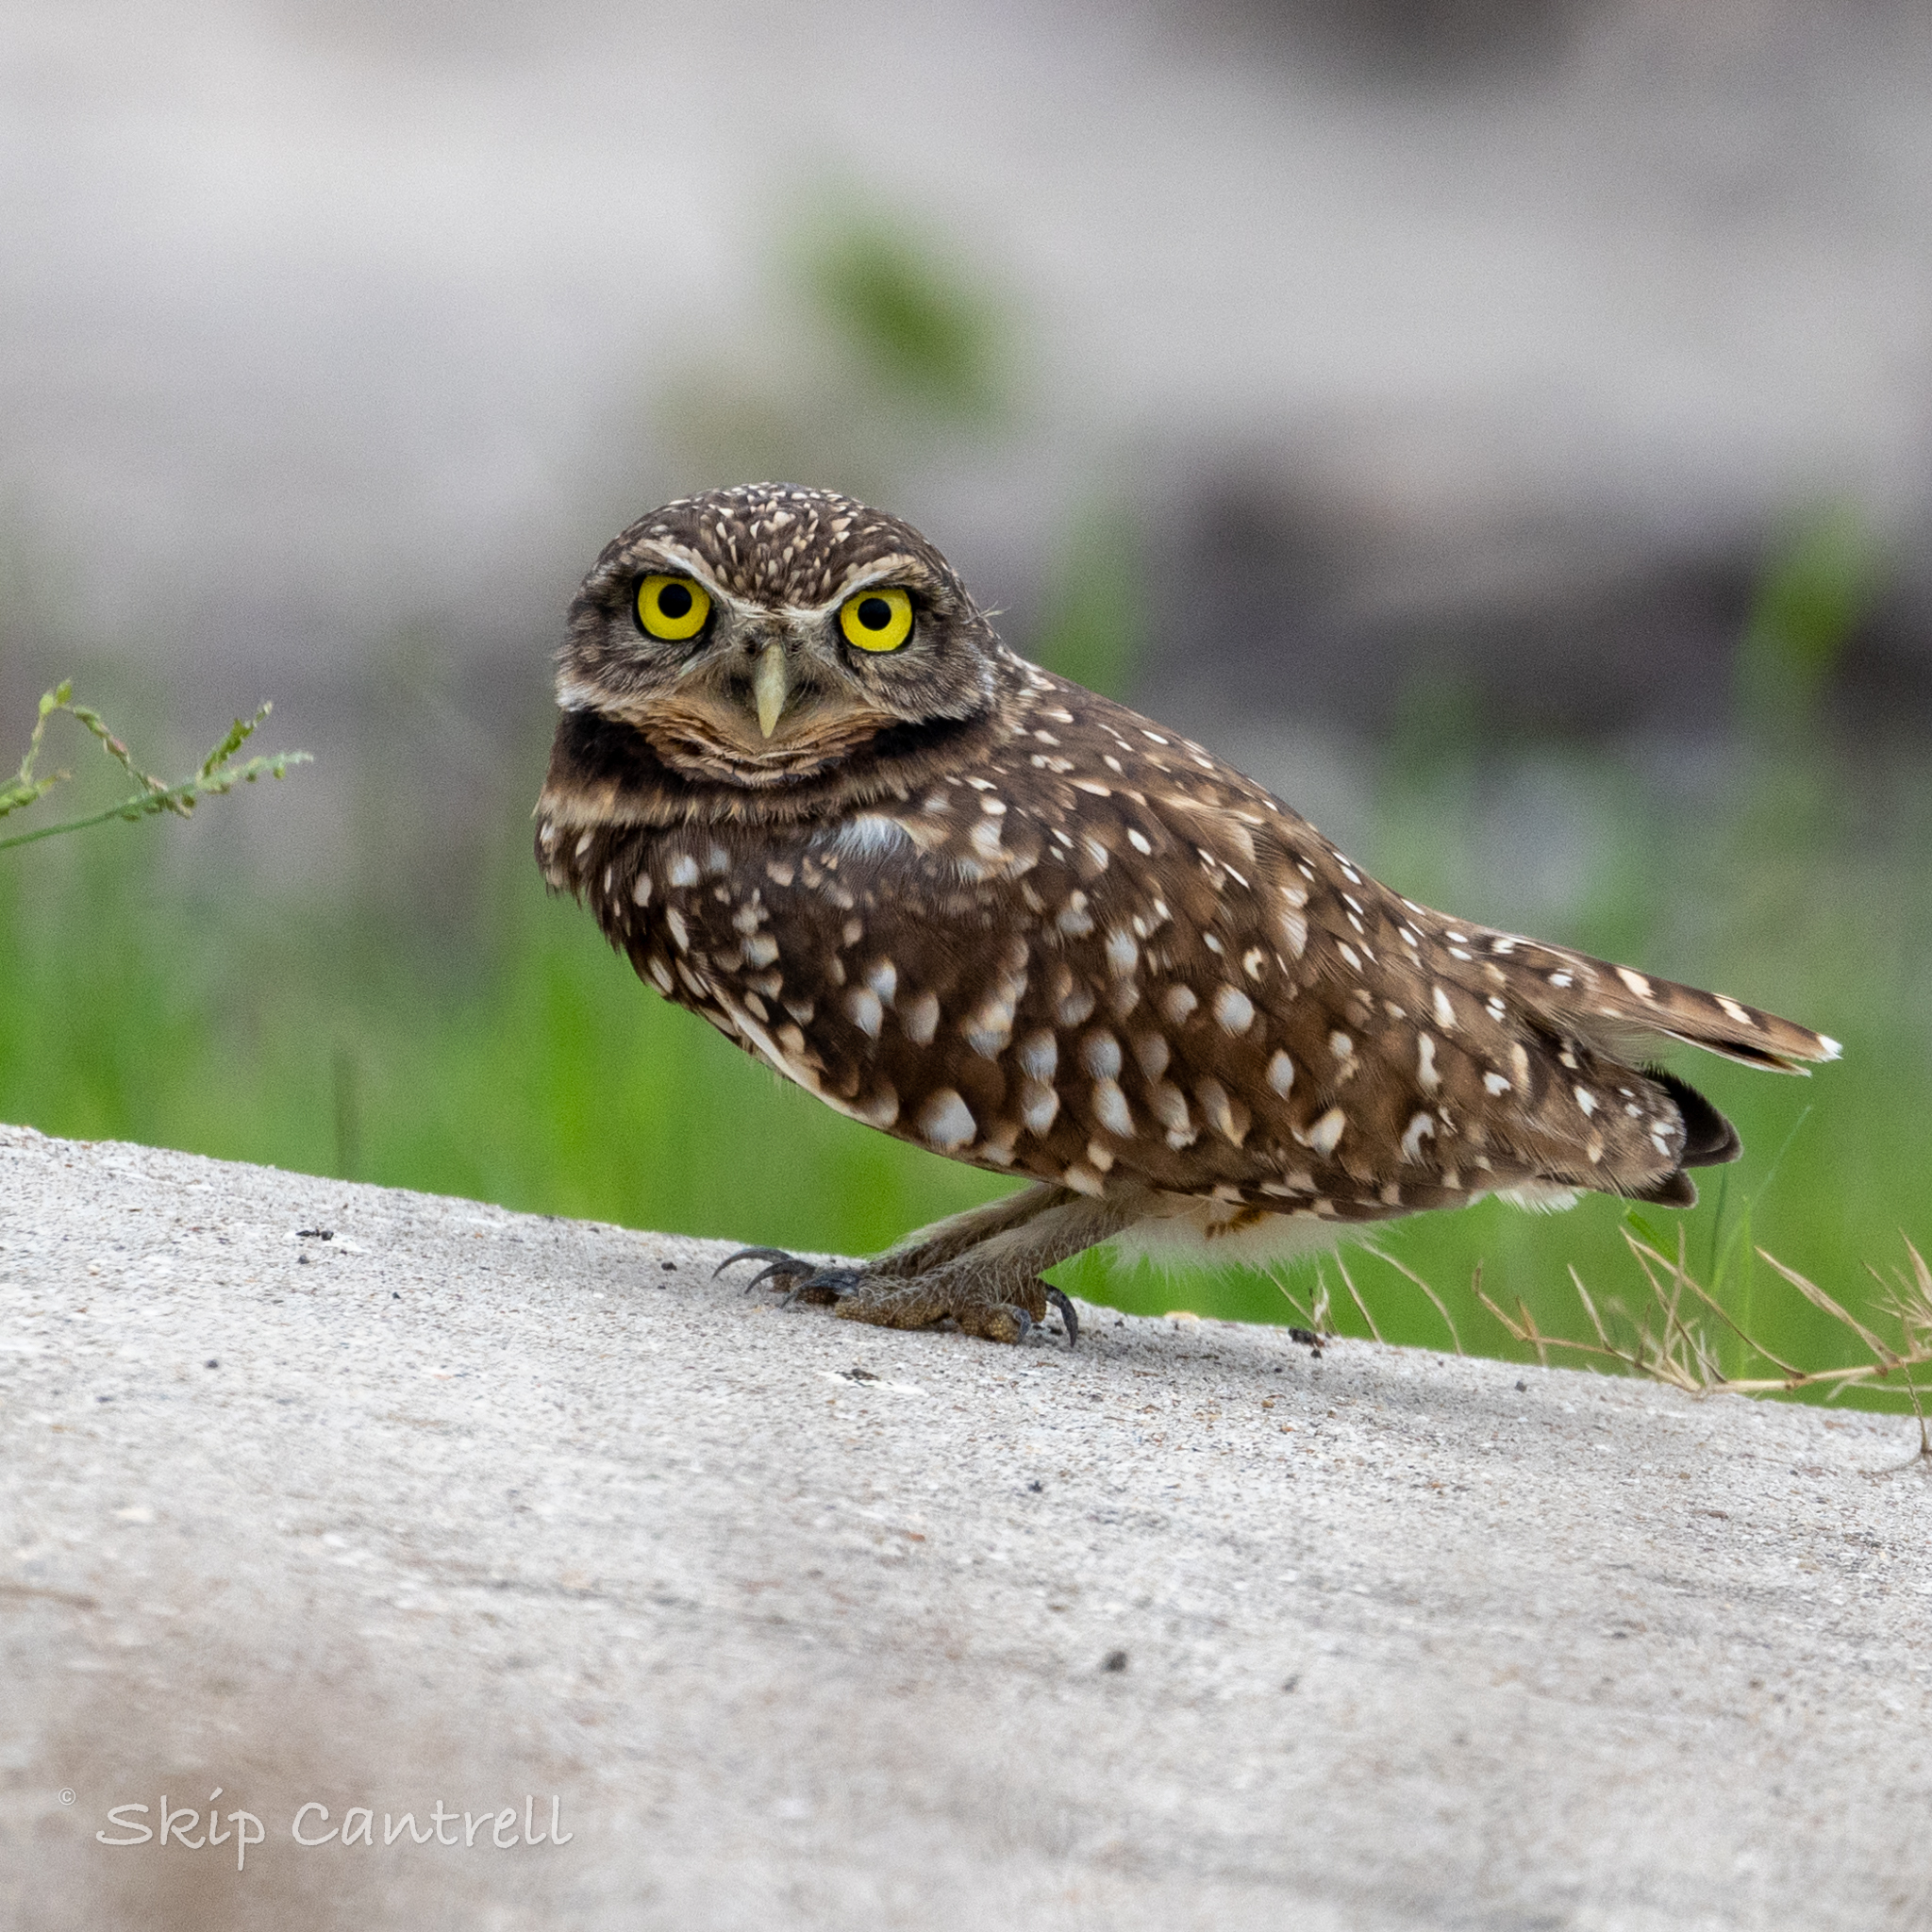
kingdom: Animalia
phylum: Chordata
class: Aves
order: Strigiformes
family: Strigidae
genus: Athene
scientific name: Athene cunicularia
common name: Burrowing owl
